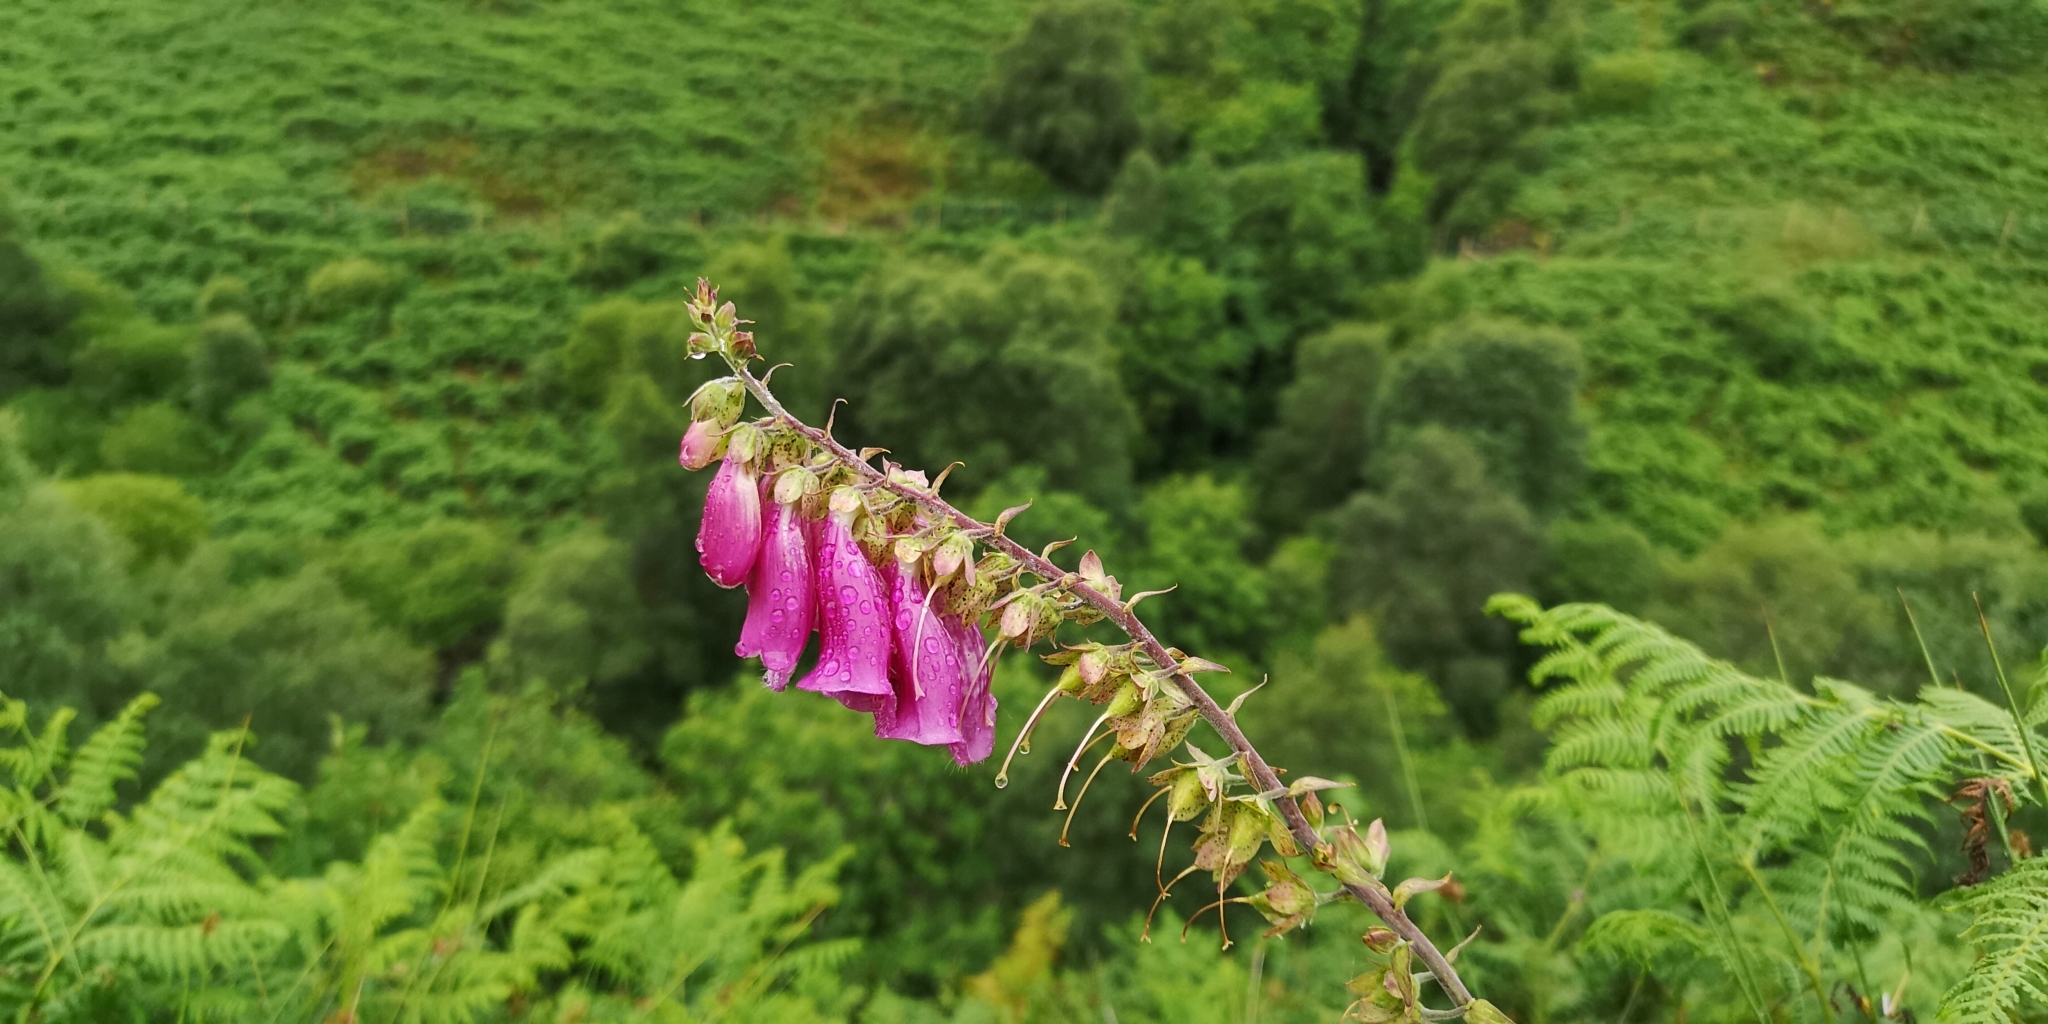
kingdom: Plantae
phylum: Tracheophyta
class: Magnoliopsida
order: Lamiales
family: Plantaginaceae
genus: Digitalis
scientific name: Digitalis purpurea
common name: Foxglove
